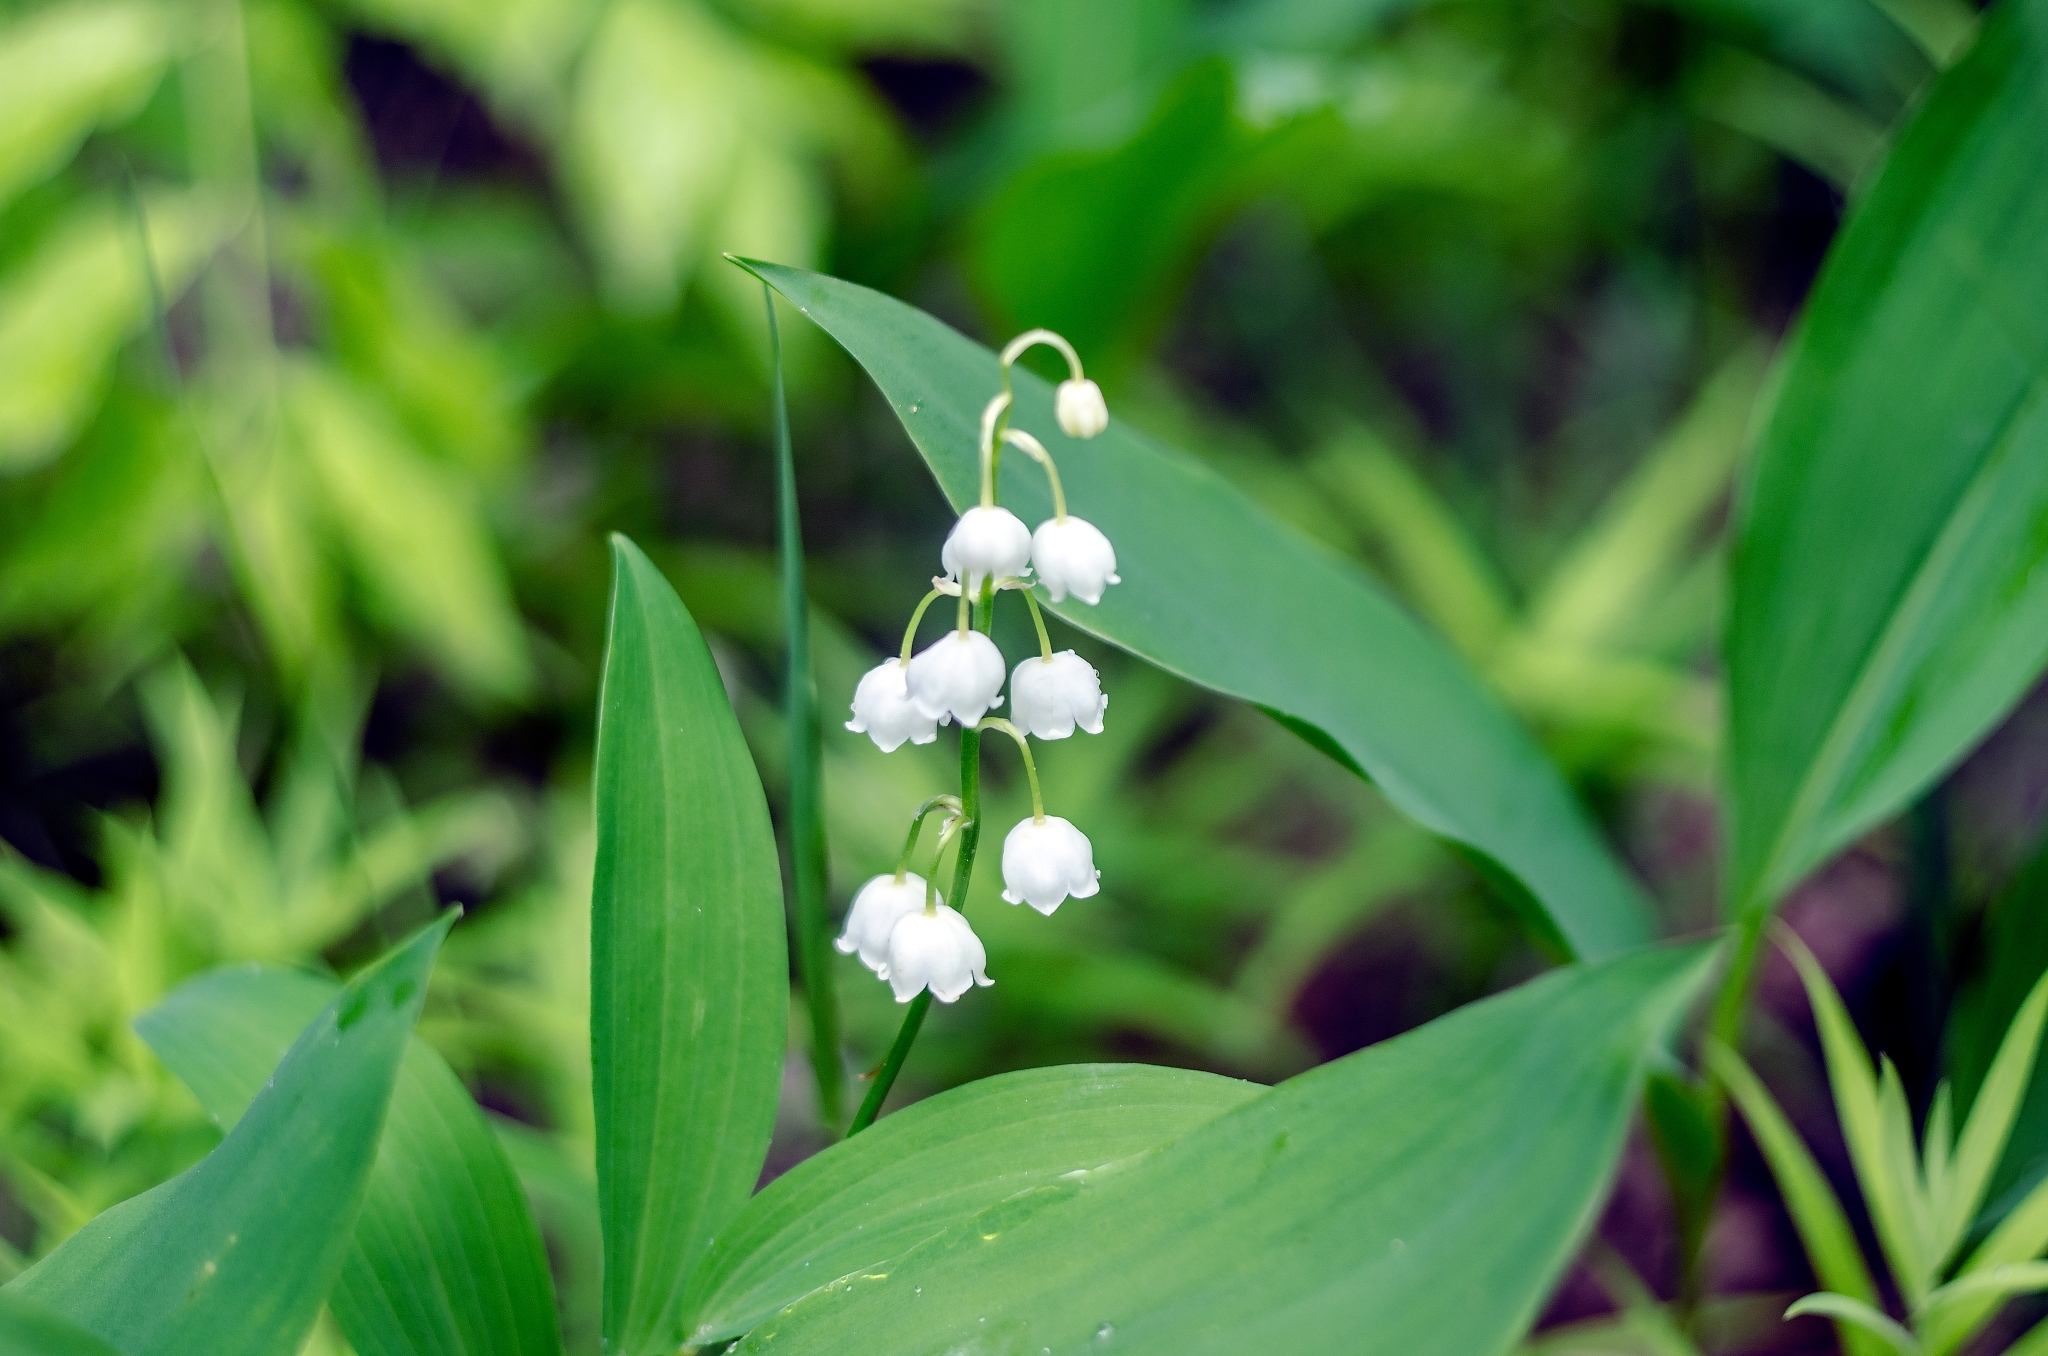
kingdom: Plantae
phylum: Tracheophyta
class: Liliopsida
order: Asparagales
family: Asparagaceae
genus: Convallaria
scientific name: Convallaria majalis
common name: Lily-of-the-valley
